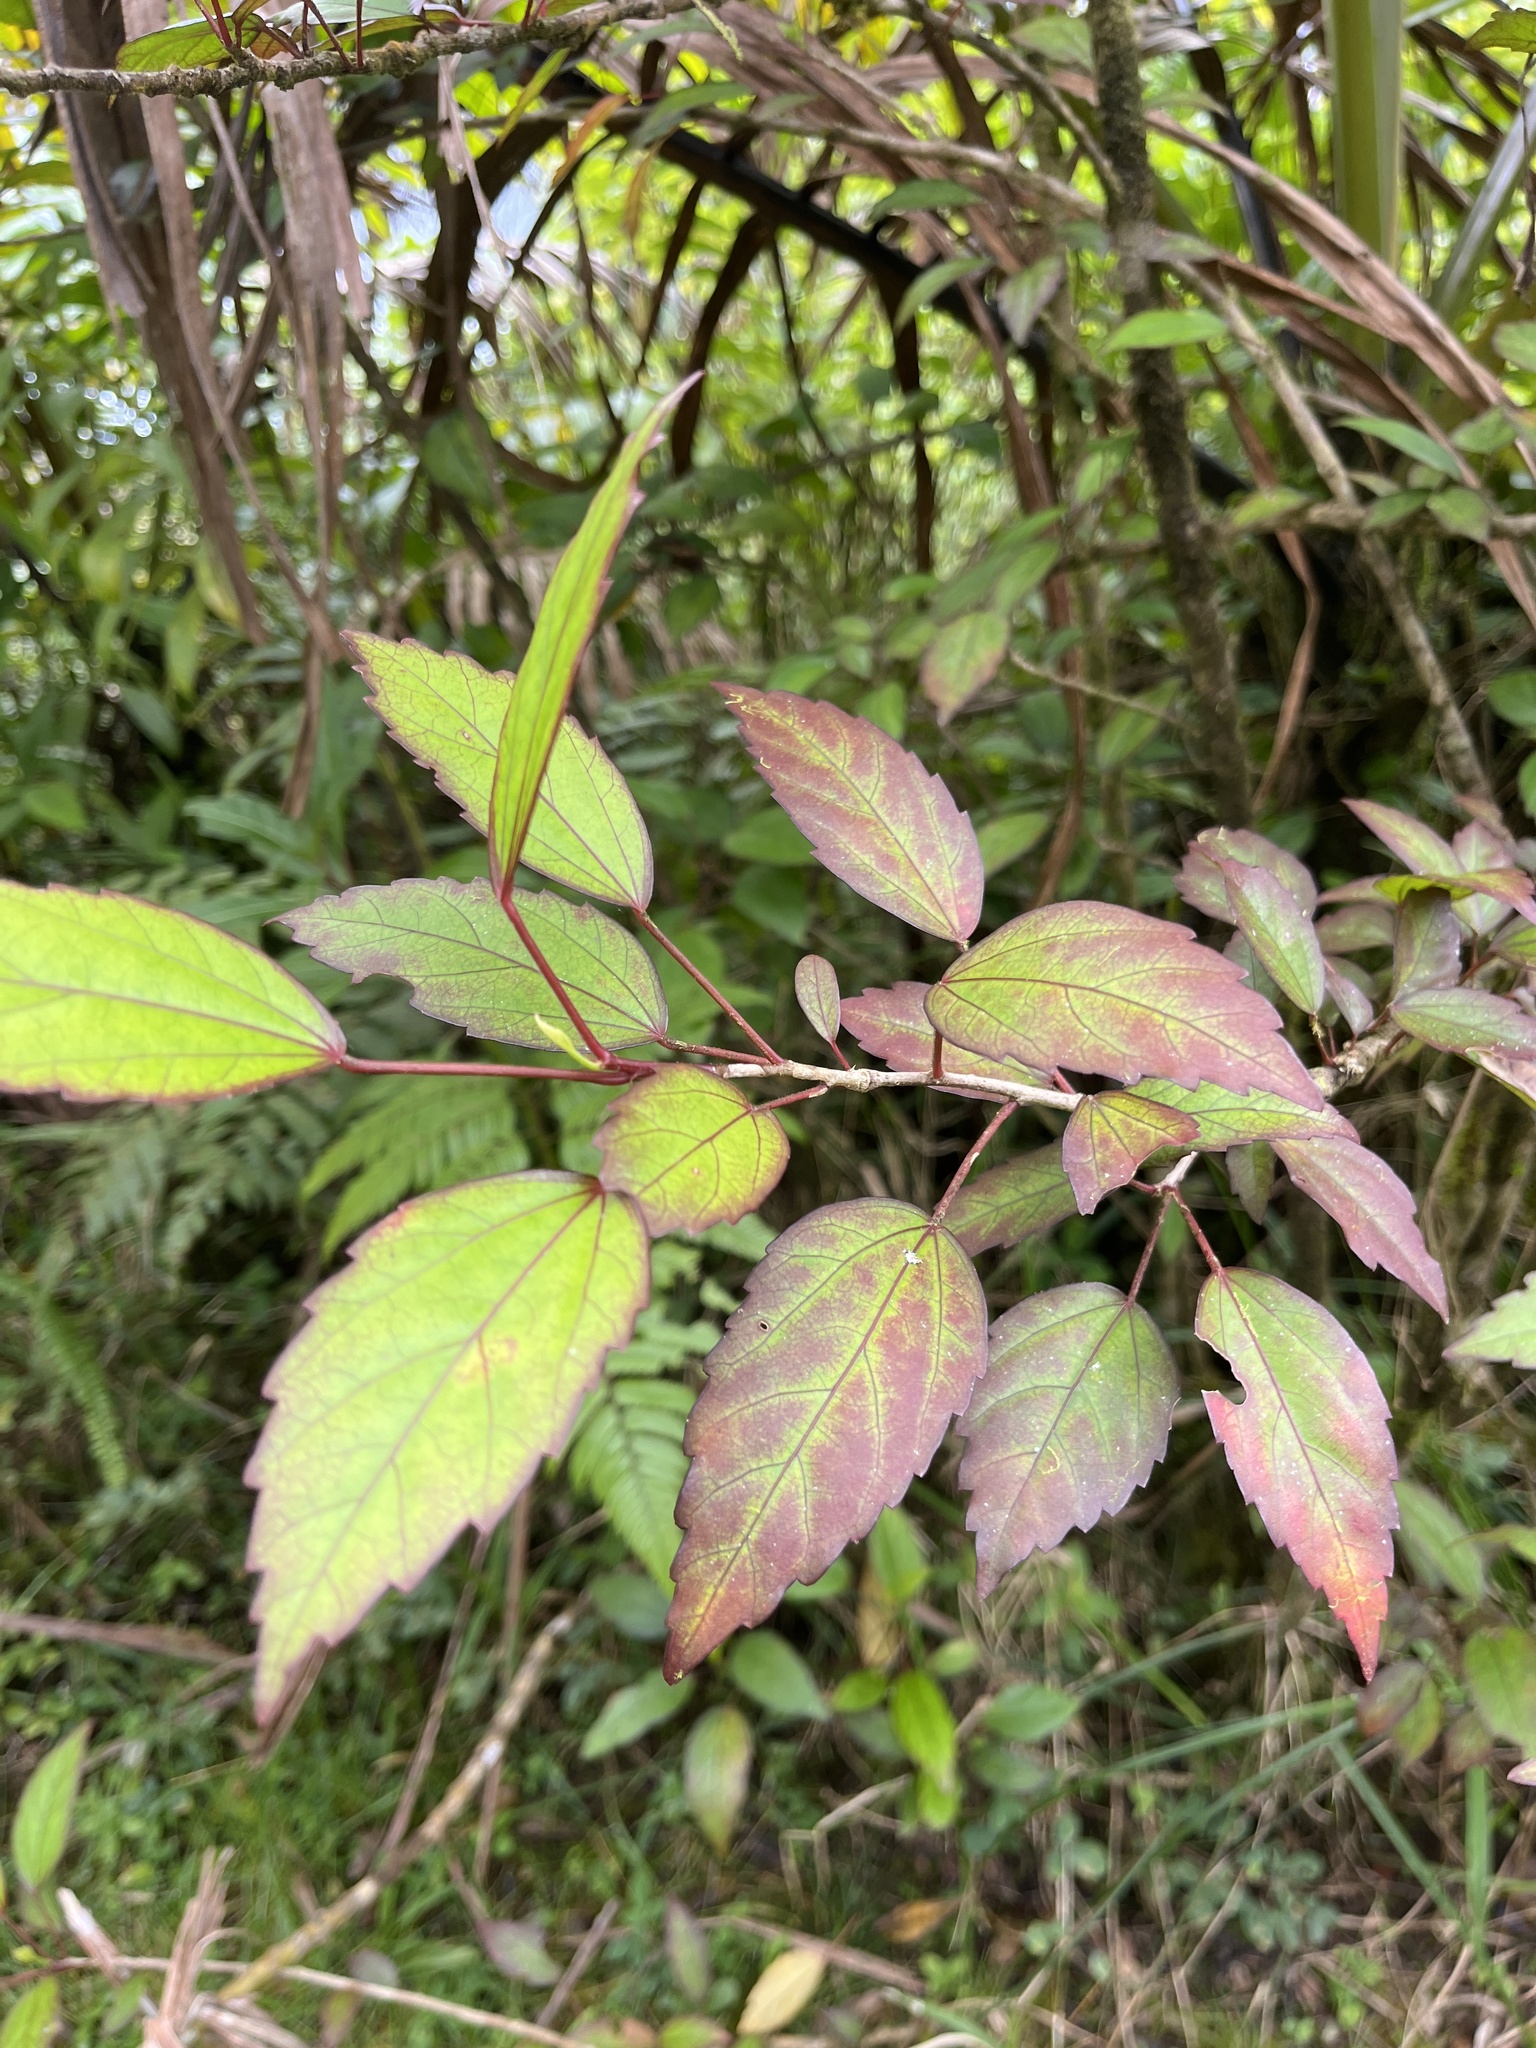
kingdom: Plantae
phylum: Tracheophyta
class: Magnoliopsida
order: Malvales
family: Malvaceae
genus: Hibiscus
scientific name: Hibiscus archeri
